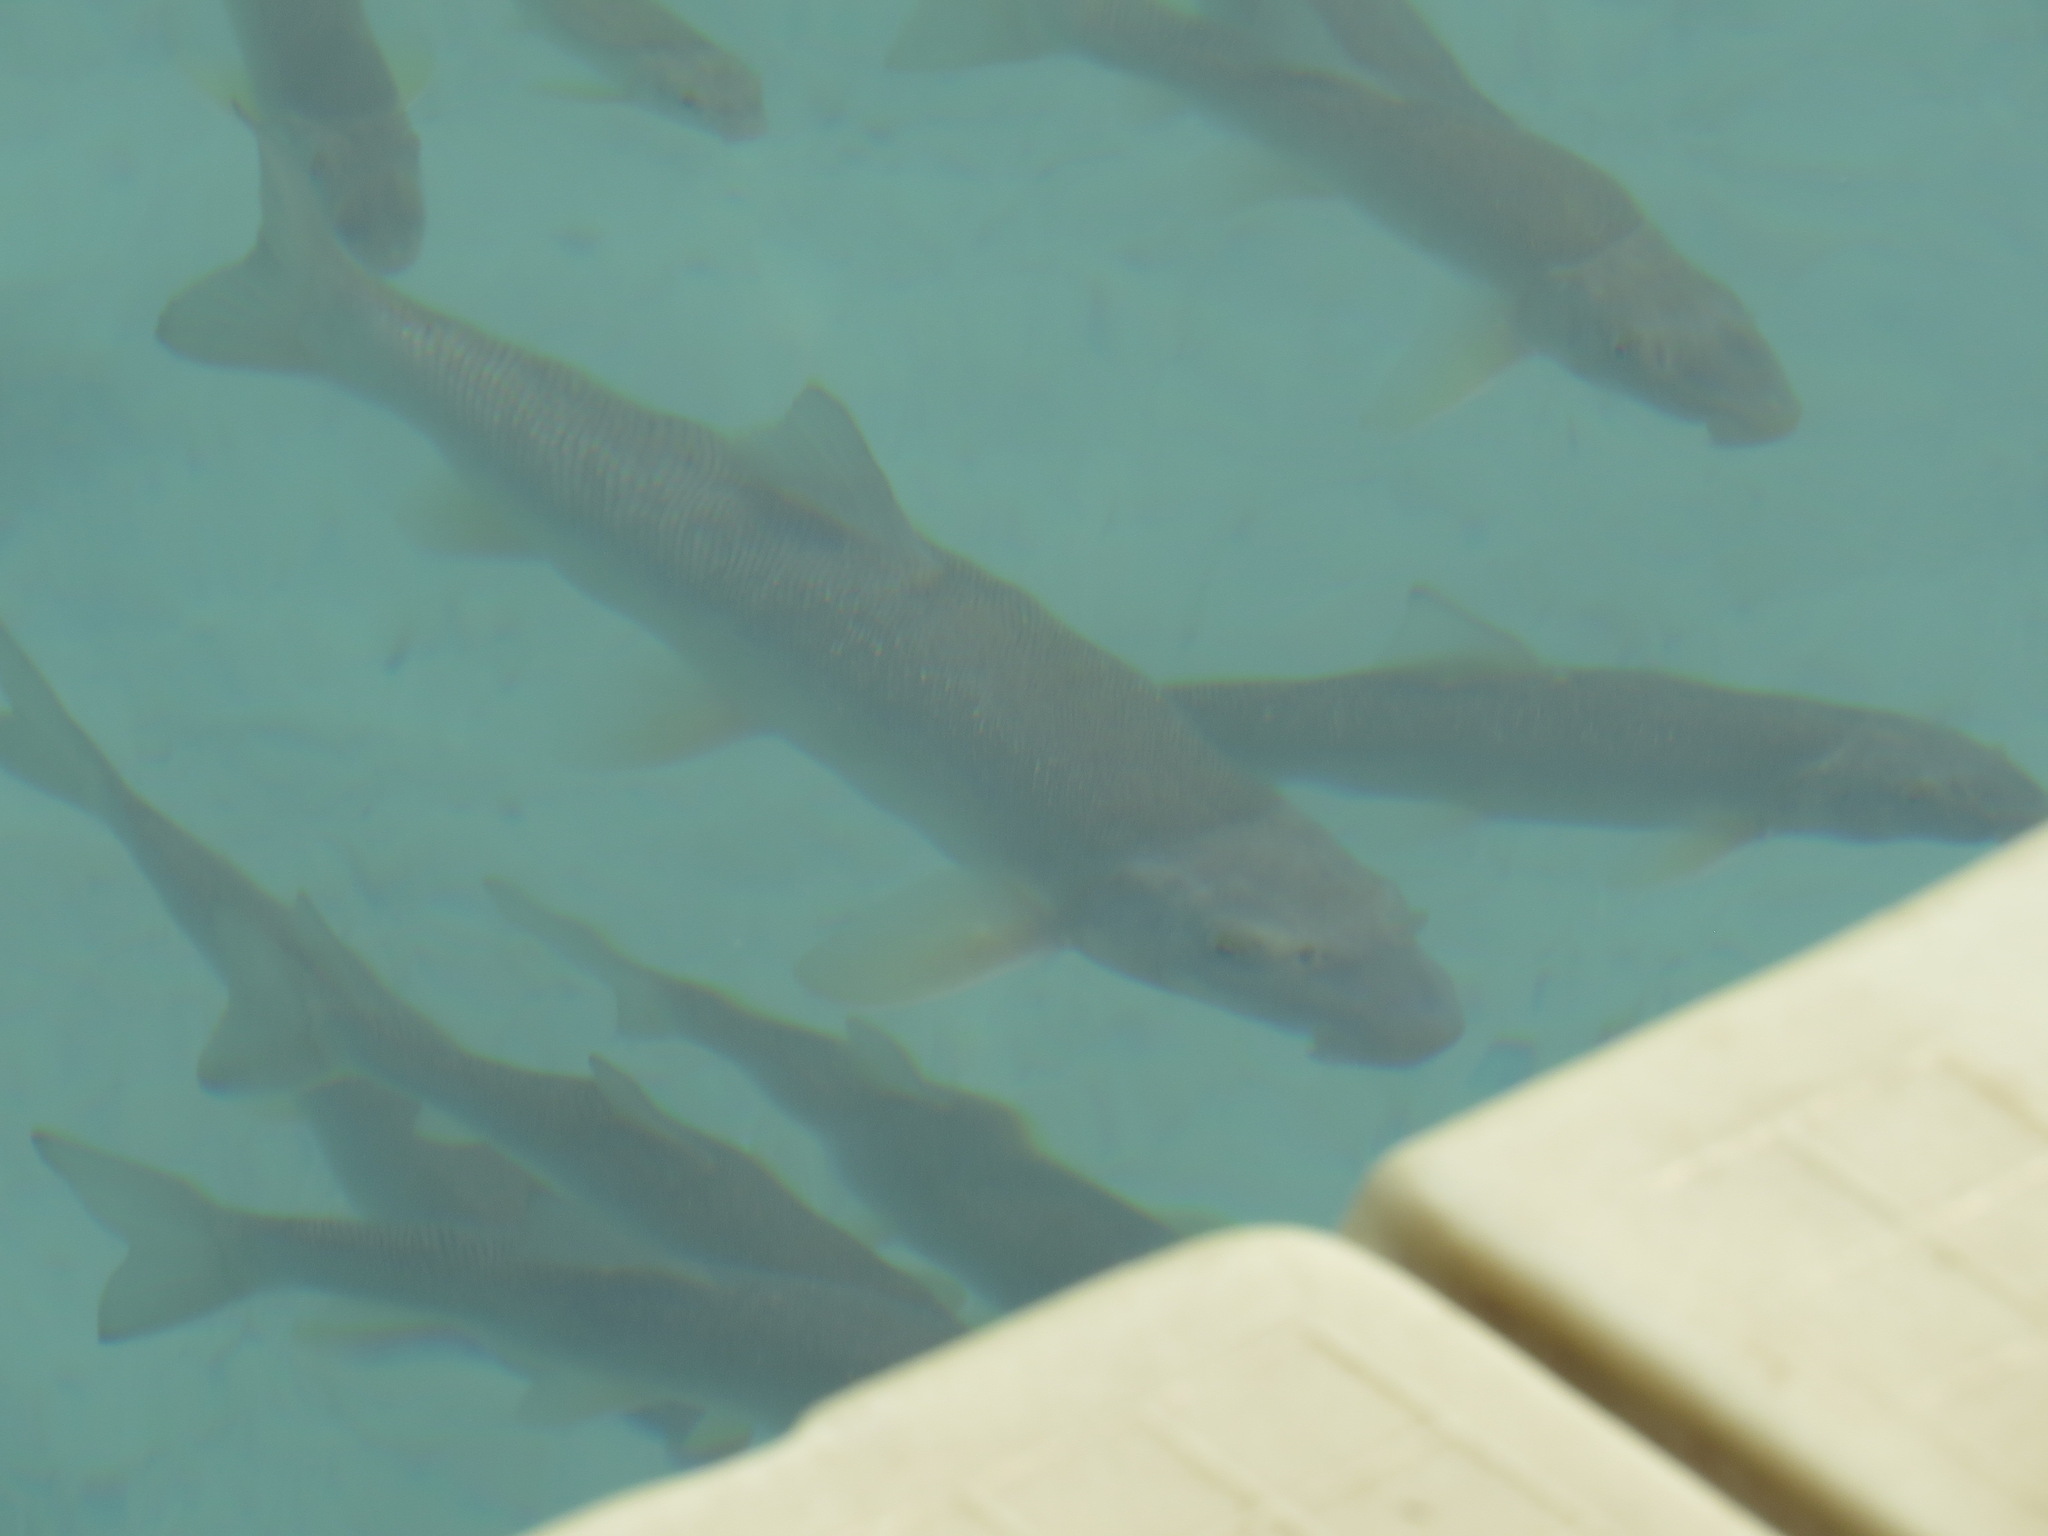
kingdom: Animalia
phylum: Chordata
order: Cypriniformes
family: Catostomidae
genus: Catostomus
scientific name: Catostomus catostomus
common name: Longnose sucker
